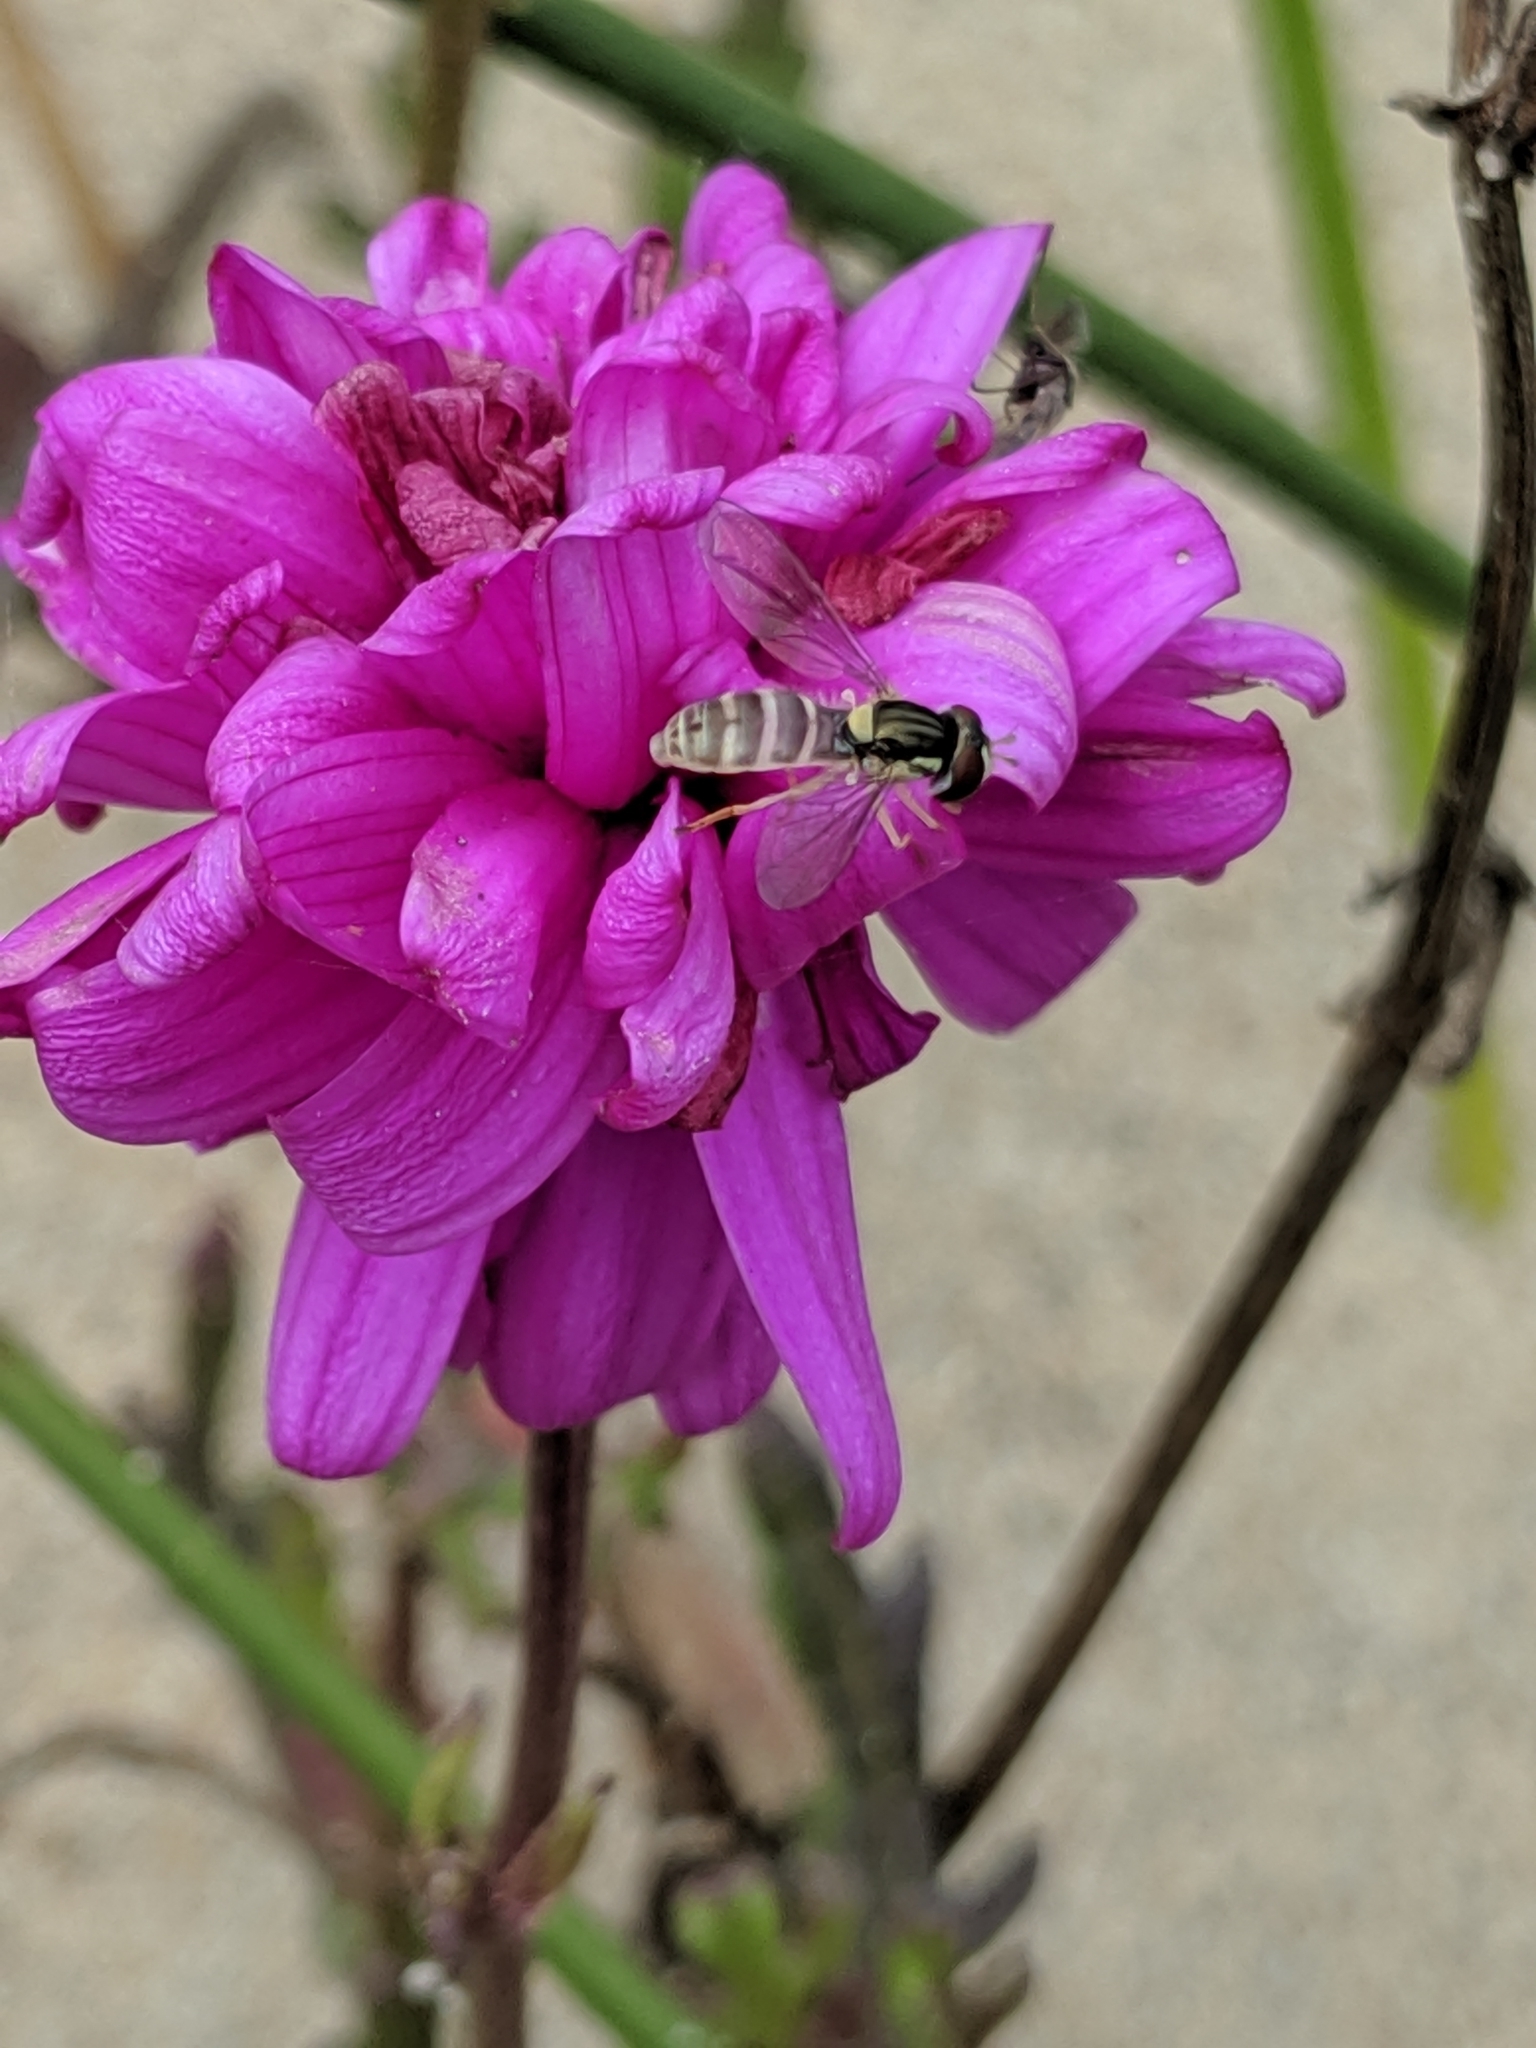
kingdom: Plantae
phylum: Tracheophyta
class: Magnoliopsida
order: Asterales
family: Asteraceae
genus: Senecio
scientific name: Senecio elegans
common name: Purple groundsel
